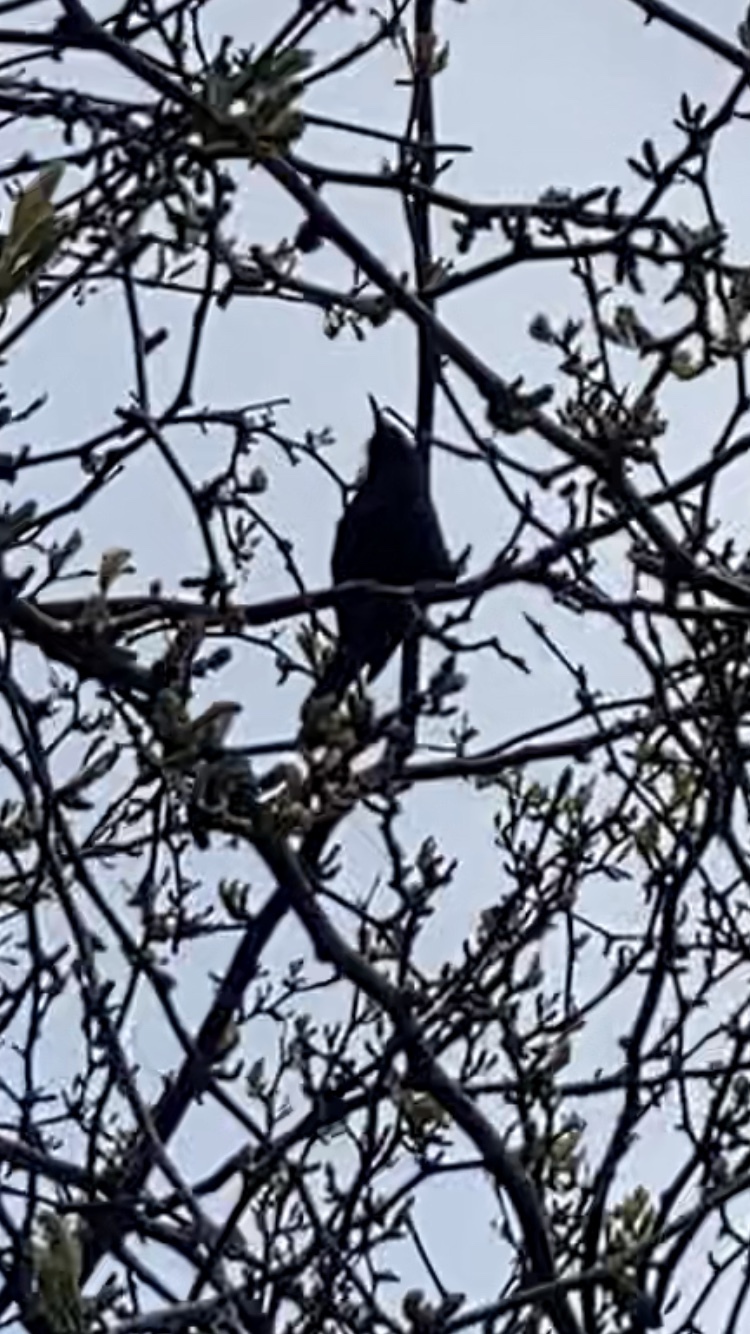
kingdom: Animalia
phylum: Chordata
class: Aves
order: Passeriformes
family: Sturnidae
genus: Sturnus
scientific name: Sturnus vulgaris
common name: Common starling
